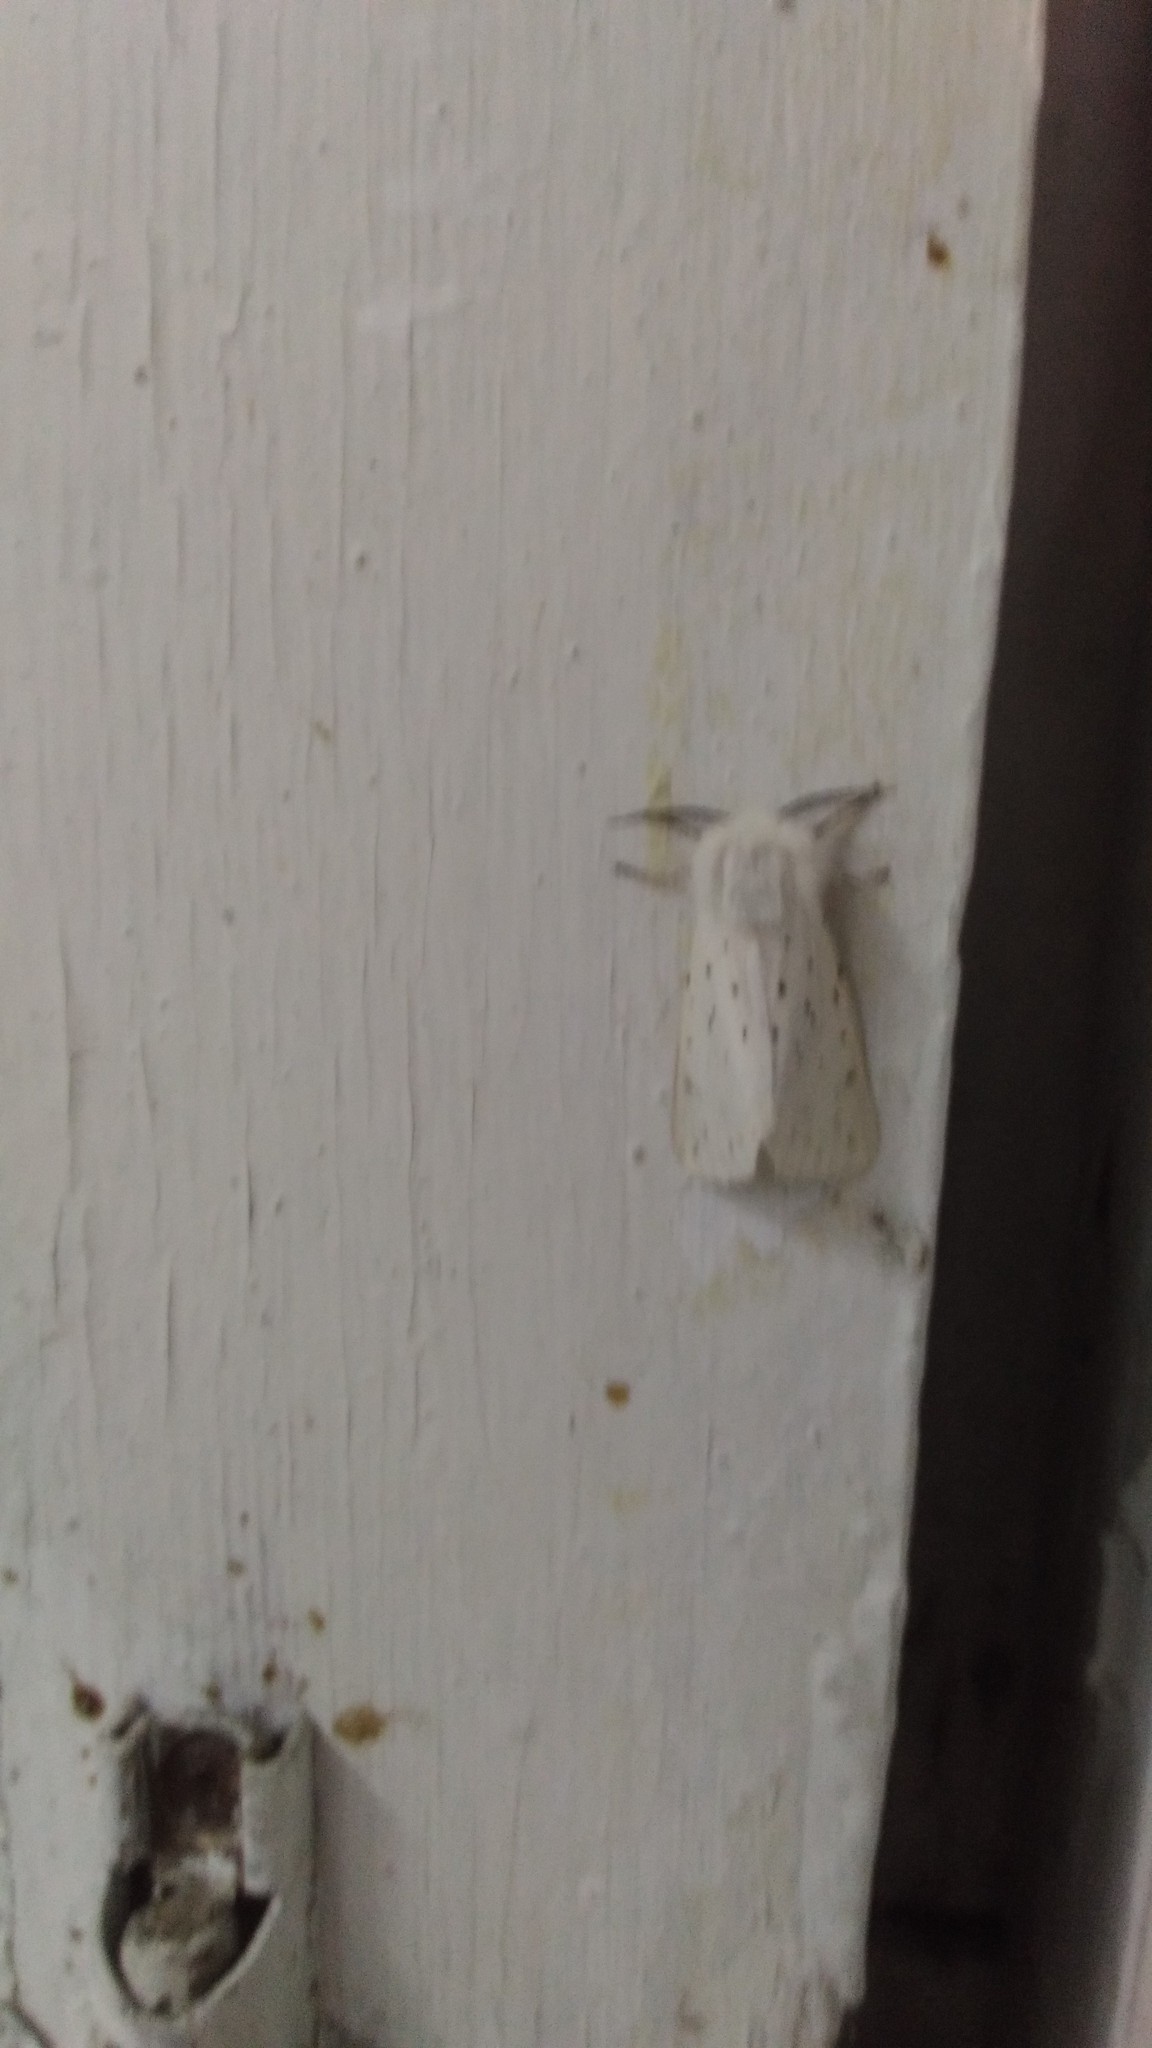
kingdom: Animalia
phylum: Arthropoda
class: Insecta
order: Lepidoptera
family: Erebidae
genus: Spilosoma
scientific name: Spilosoma lubricipeda
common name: White ermine
